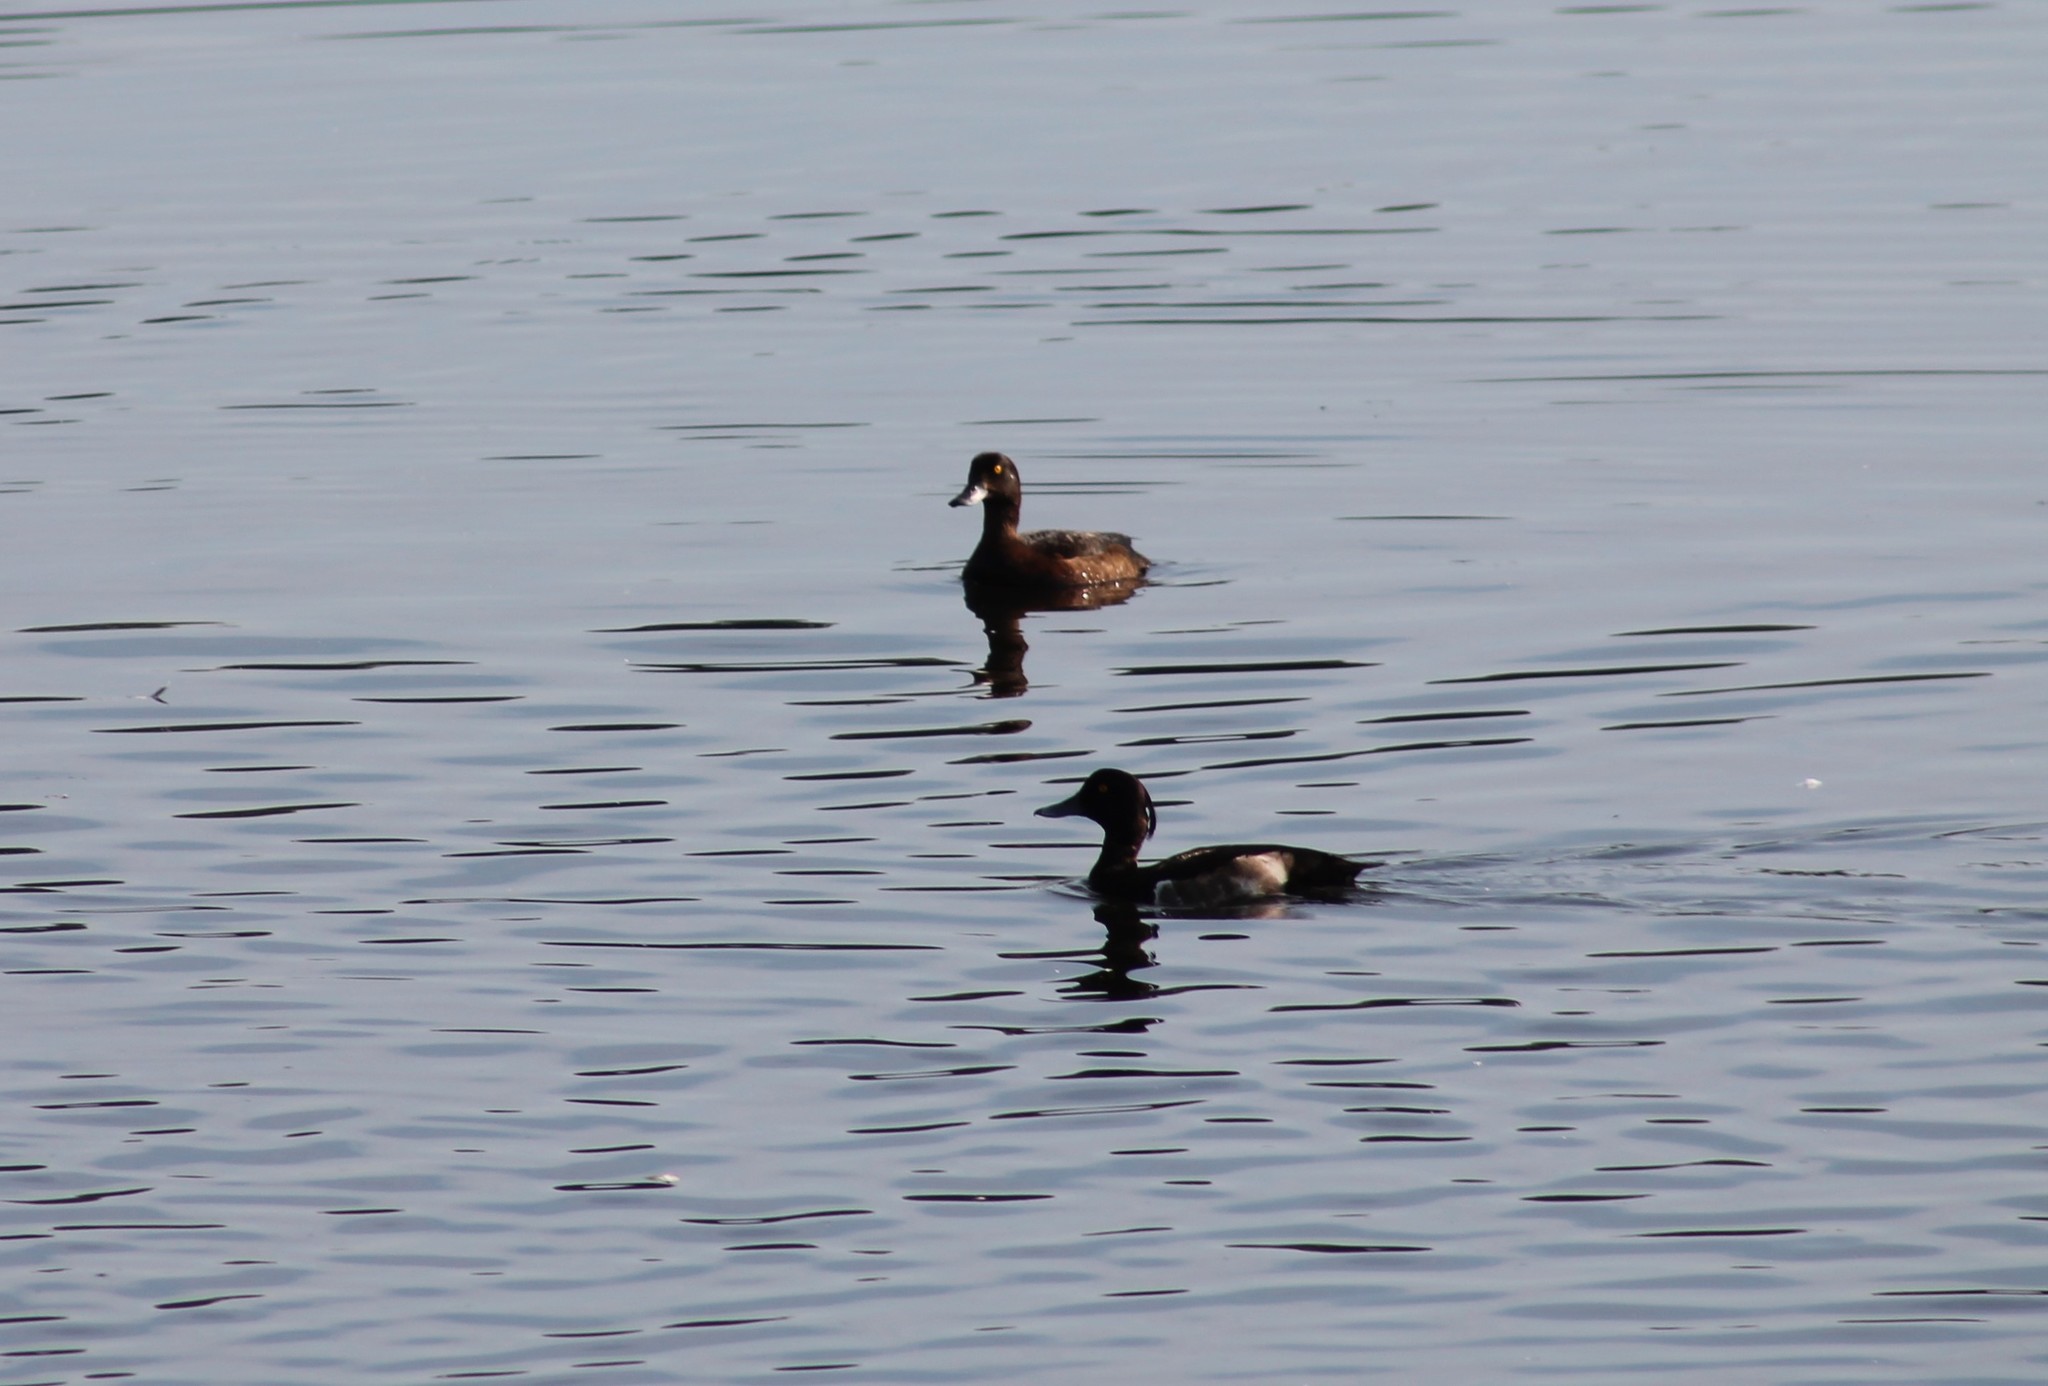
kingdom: Animalia
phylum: Chordata
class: Aves
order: Anseriformes
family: Anatidae
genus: Aythya
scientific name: Aythya fuligula
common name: Tufted duck
